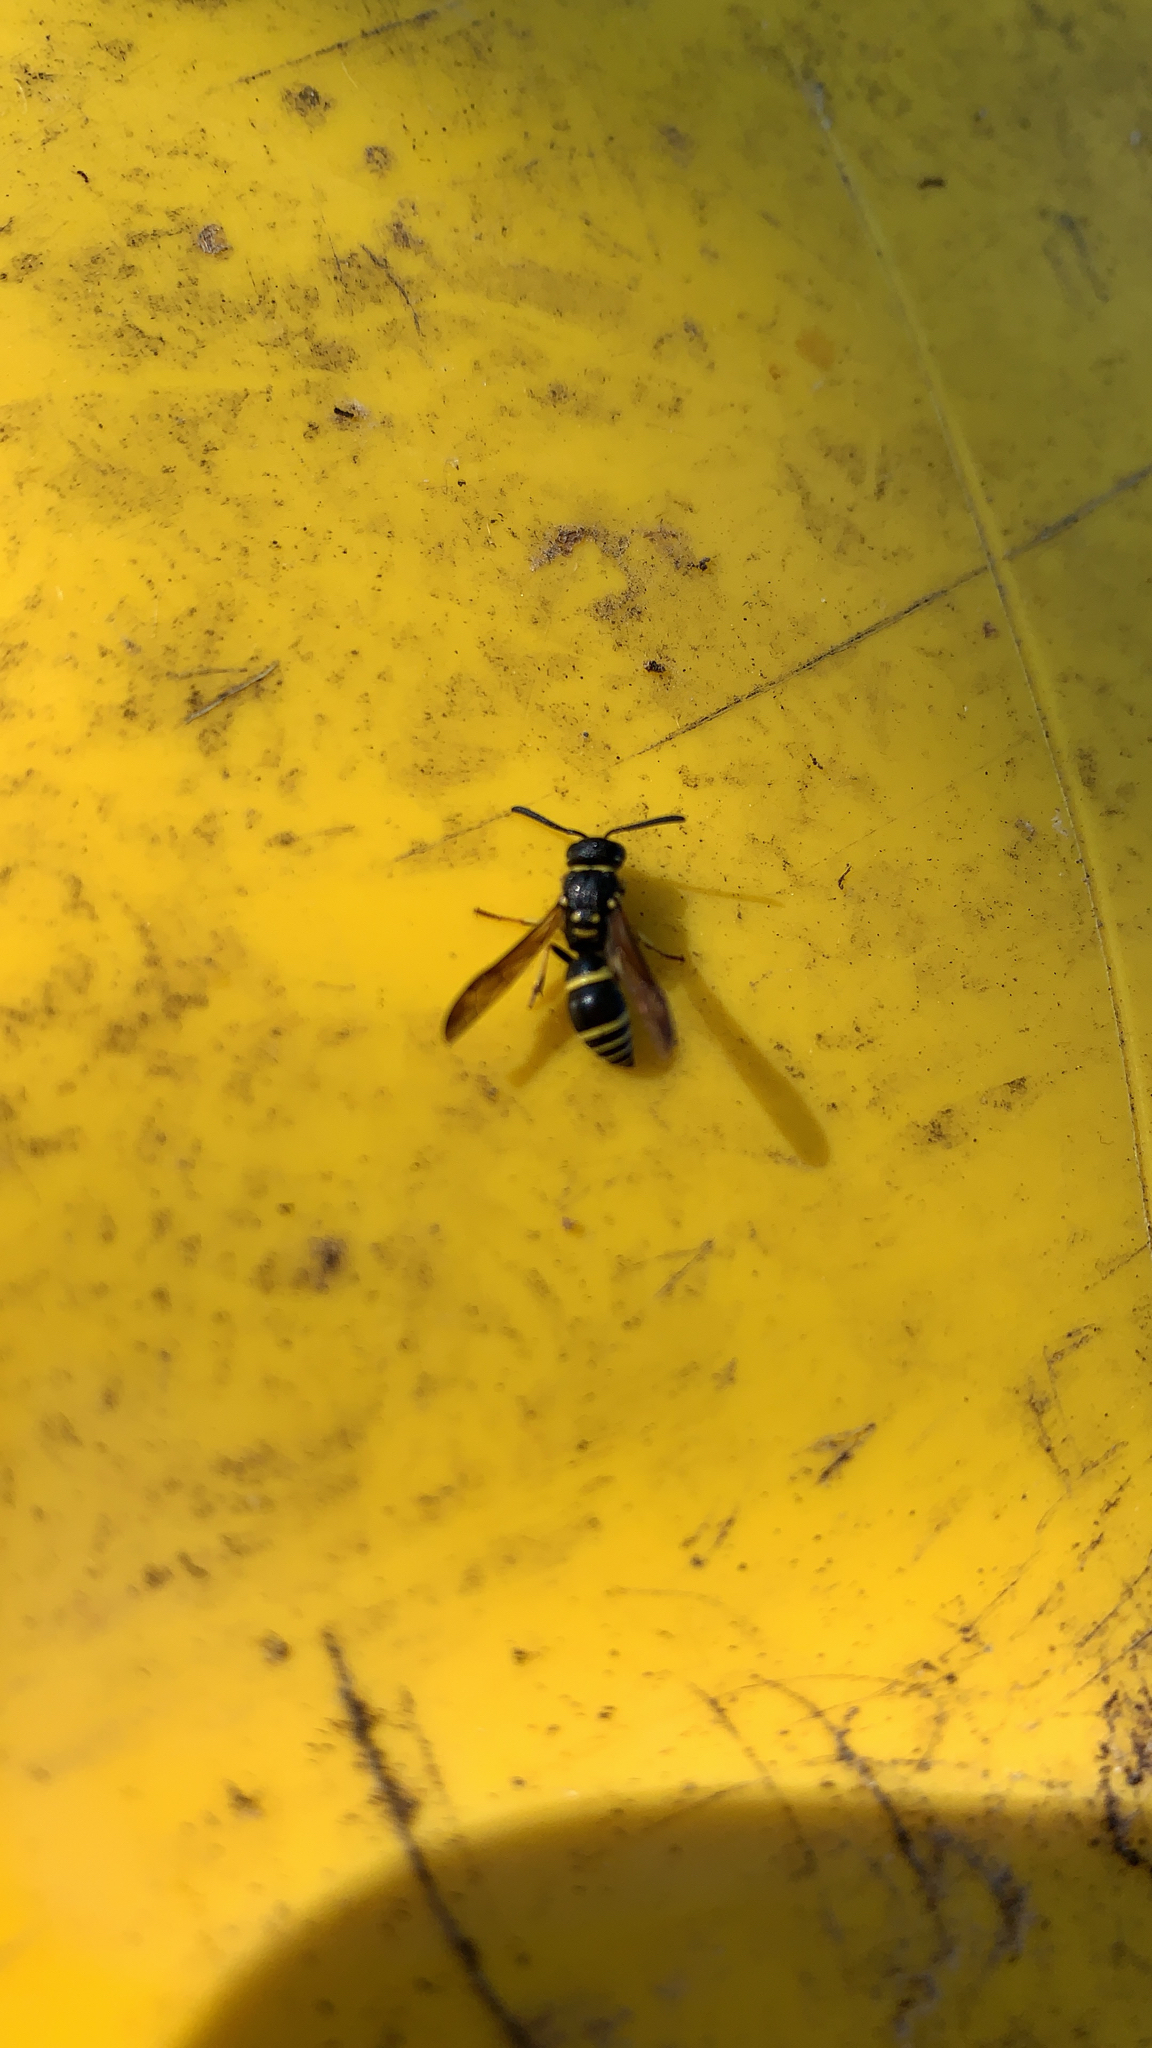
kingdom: Animalia
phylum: Arthropoda
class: Insecta
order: Hymenoptera
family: Vespidae
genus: Ancistrocerus
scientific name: Ancistrocerus adiabatus
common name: Bramble mason wasp
